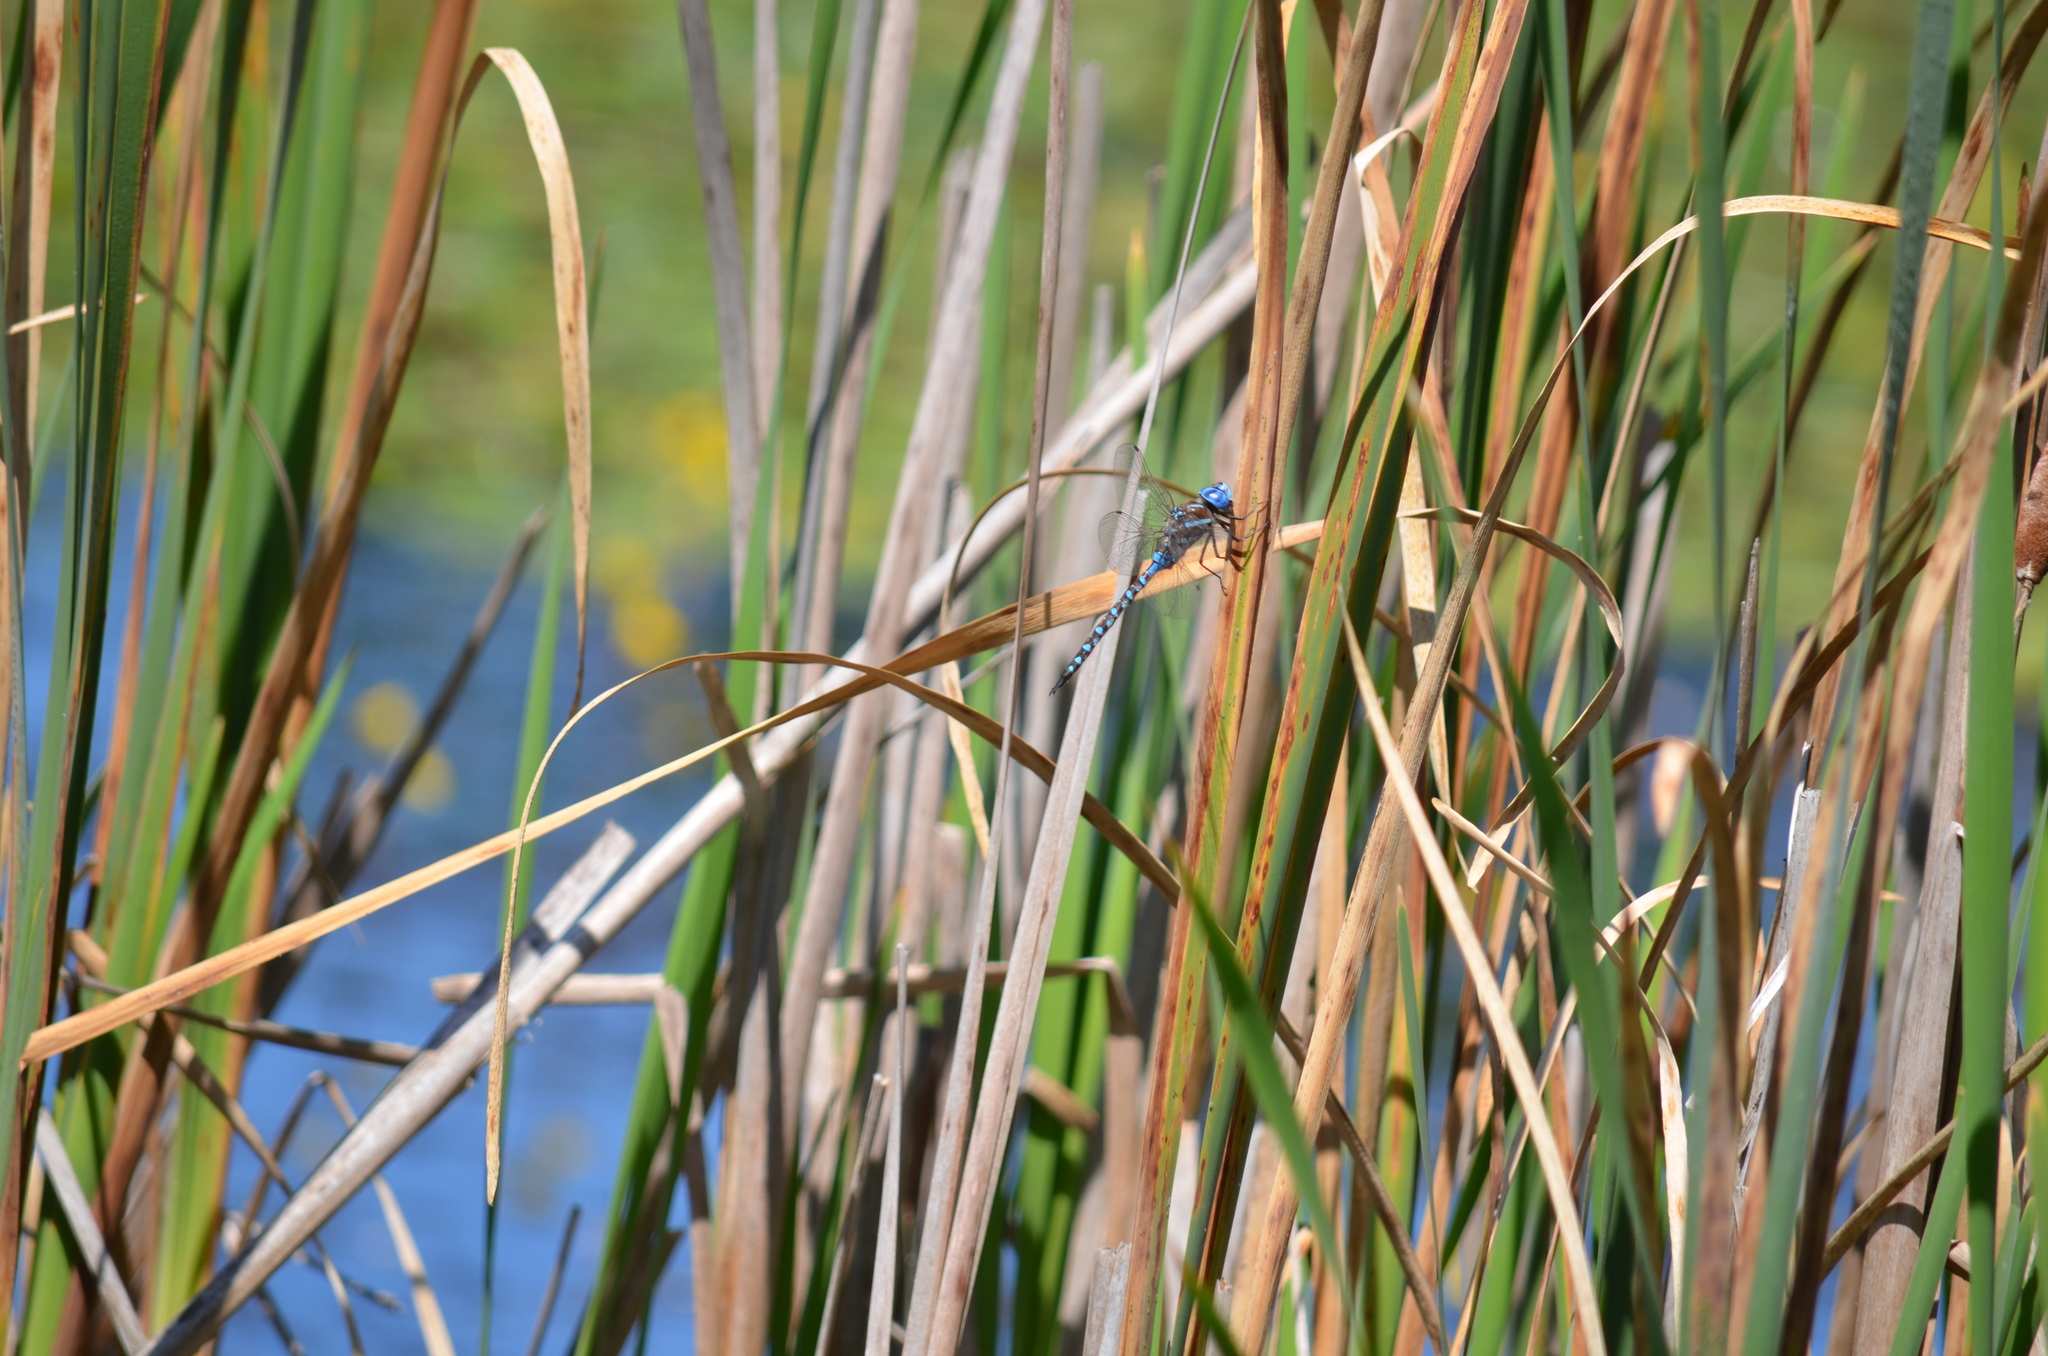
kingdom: Animalia
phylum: Arthropoda
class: Insecta
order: Odonata
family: Aeshnidae
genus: Rhionaeschna
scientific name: Rhionaeschna multicolor
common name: Blue-eyed darner
